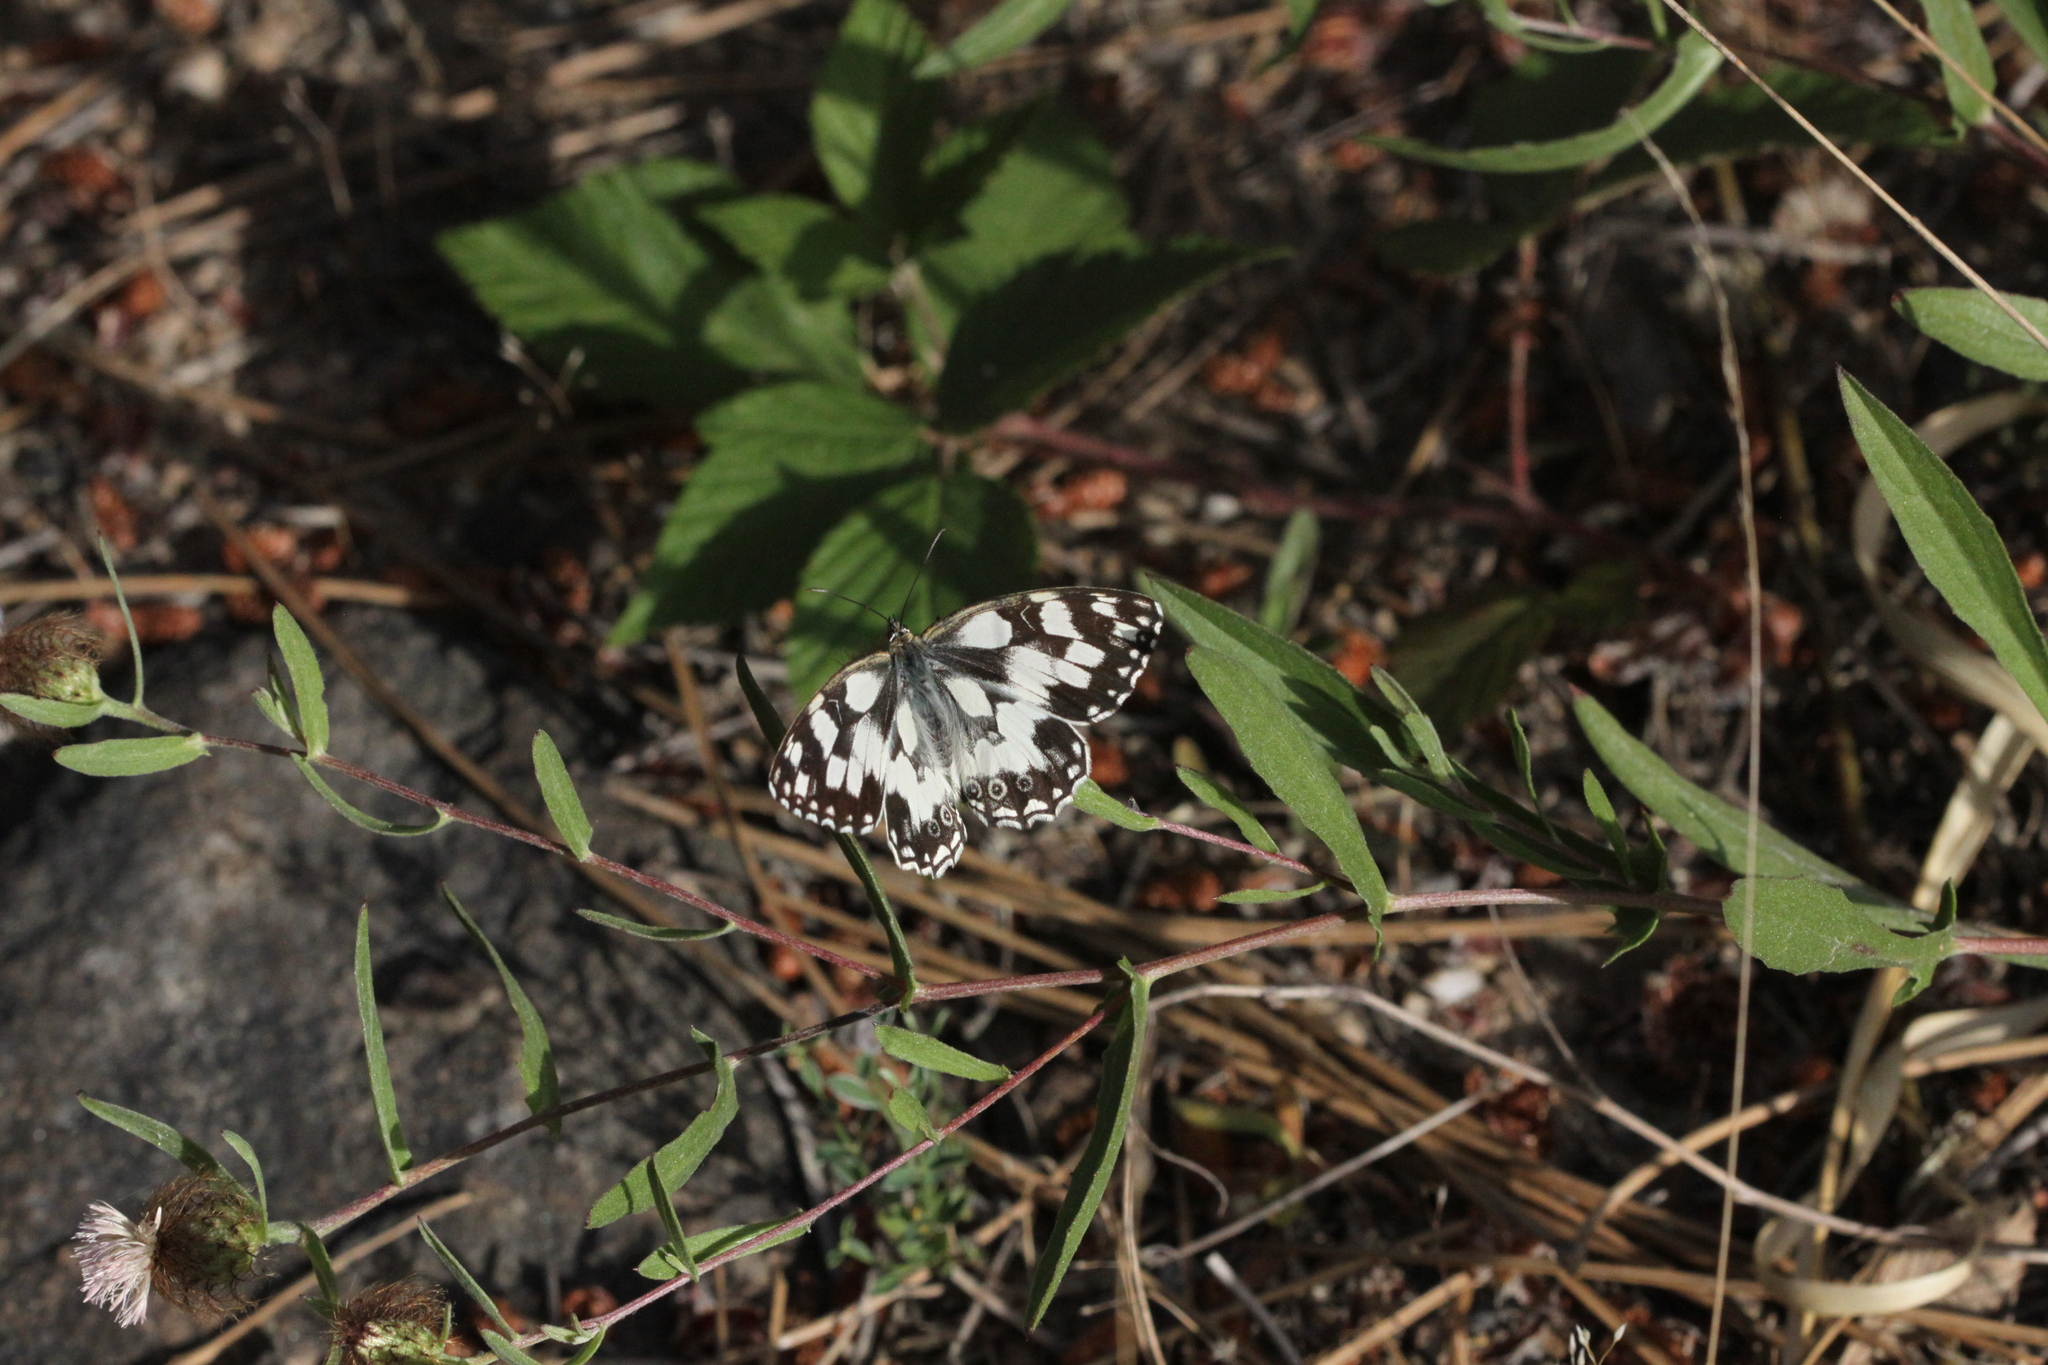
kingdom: Animalia
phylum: Arthropoda
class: Insecta
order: Lepidoptera
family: Nymphalidae
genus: Melanargia
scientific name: Melanargia galathea
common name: Marbled white
